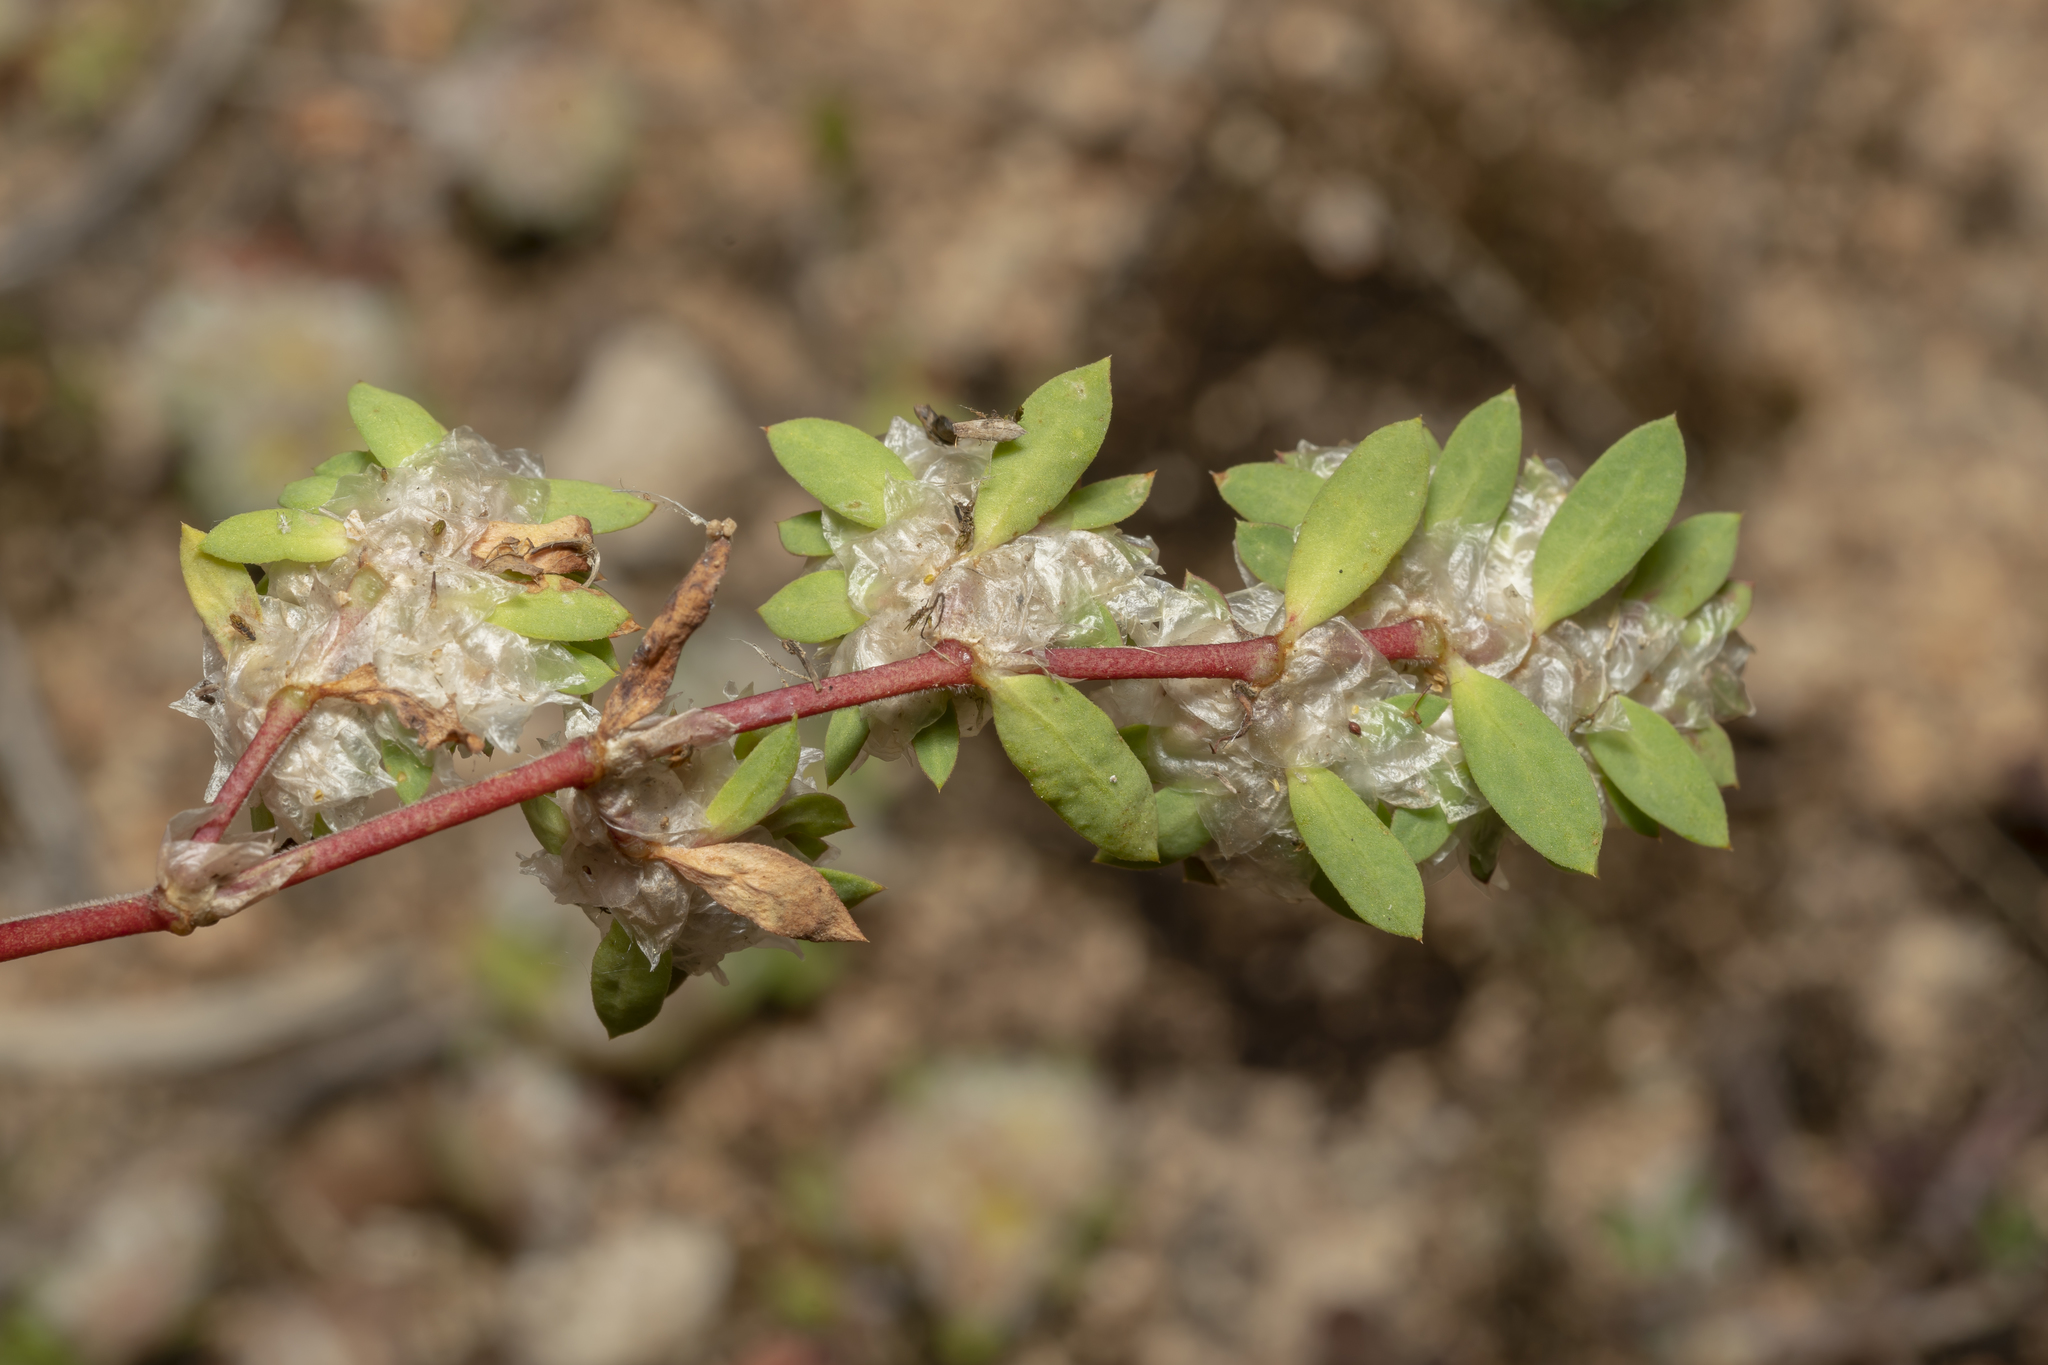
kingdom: Plantae
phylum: Tracheophyta
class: Magnoliopsida
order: Caryophyllales
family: Caryophyllaceae
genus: Paronychia
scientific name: Paronychia argentea
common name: Silver nailroot
